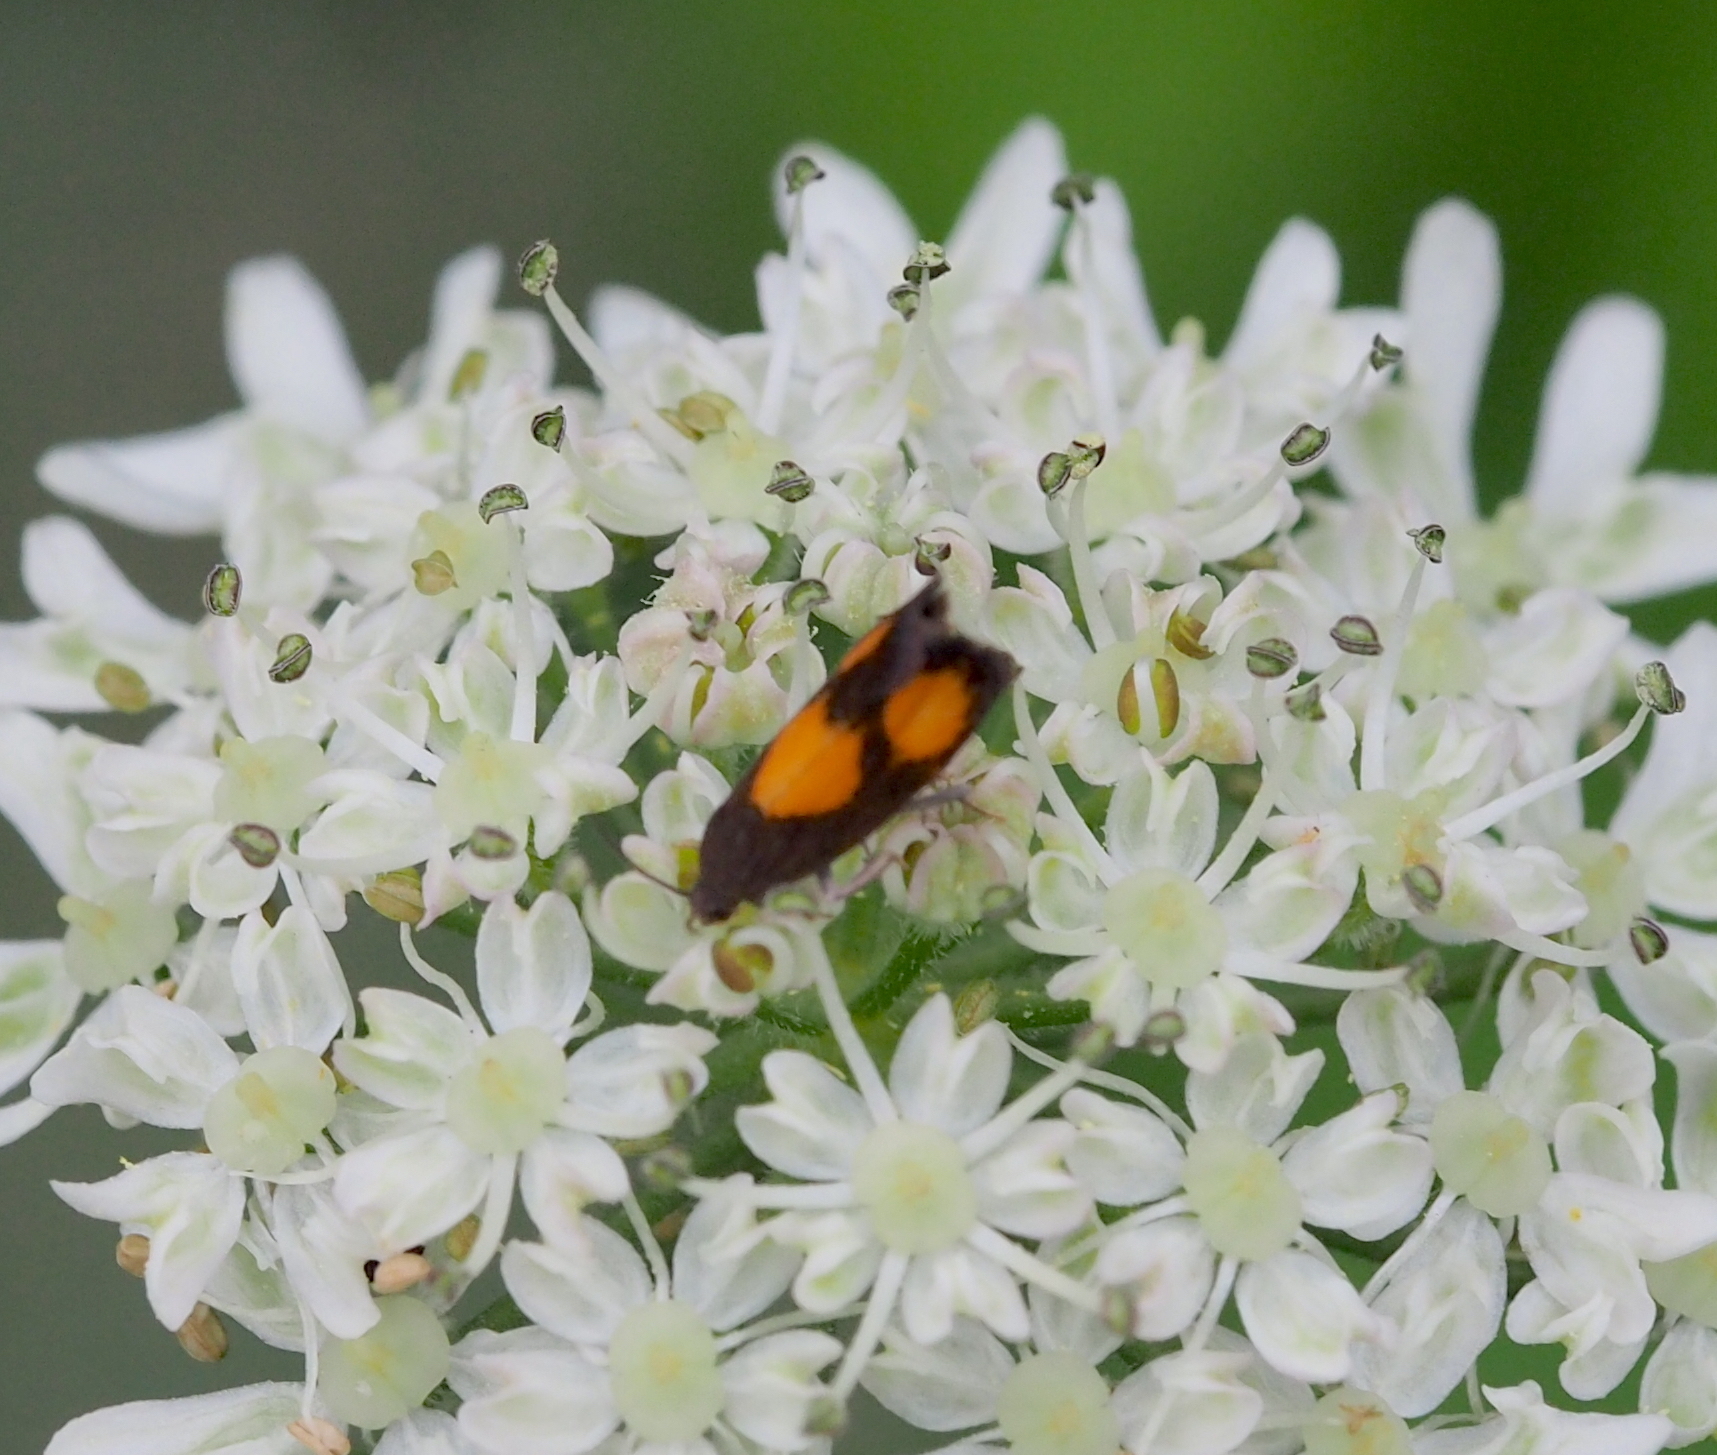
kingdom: Animalia
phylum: Arthropoda
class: Insecta
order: Lepidoptera
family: Tortricidae
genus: Pammene
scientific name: Pammene aurana
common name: Orange-spot piercer
